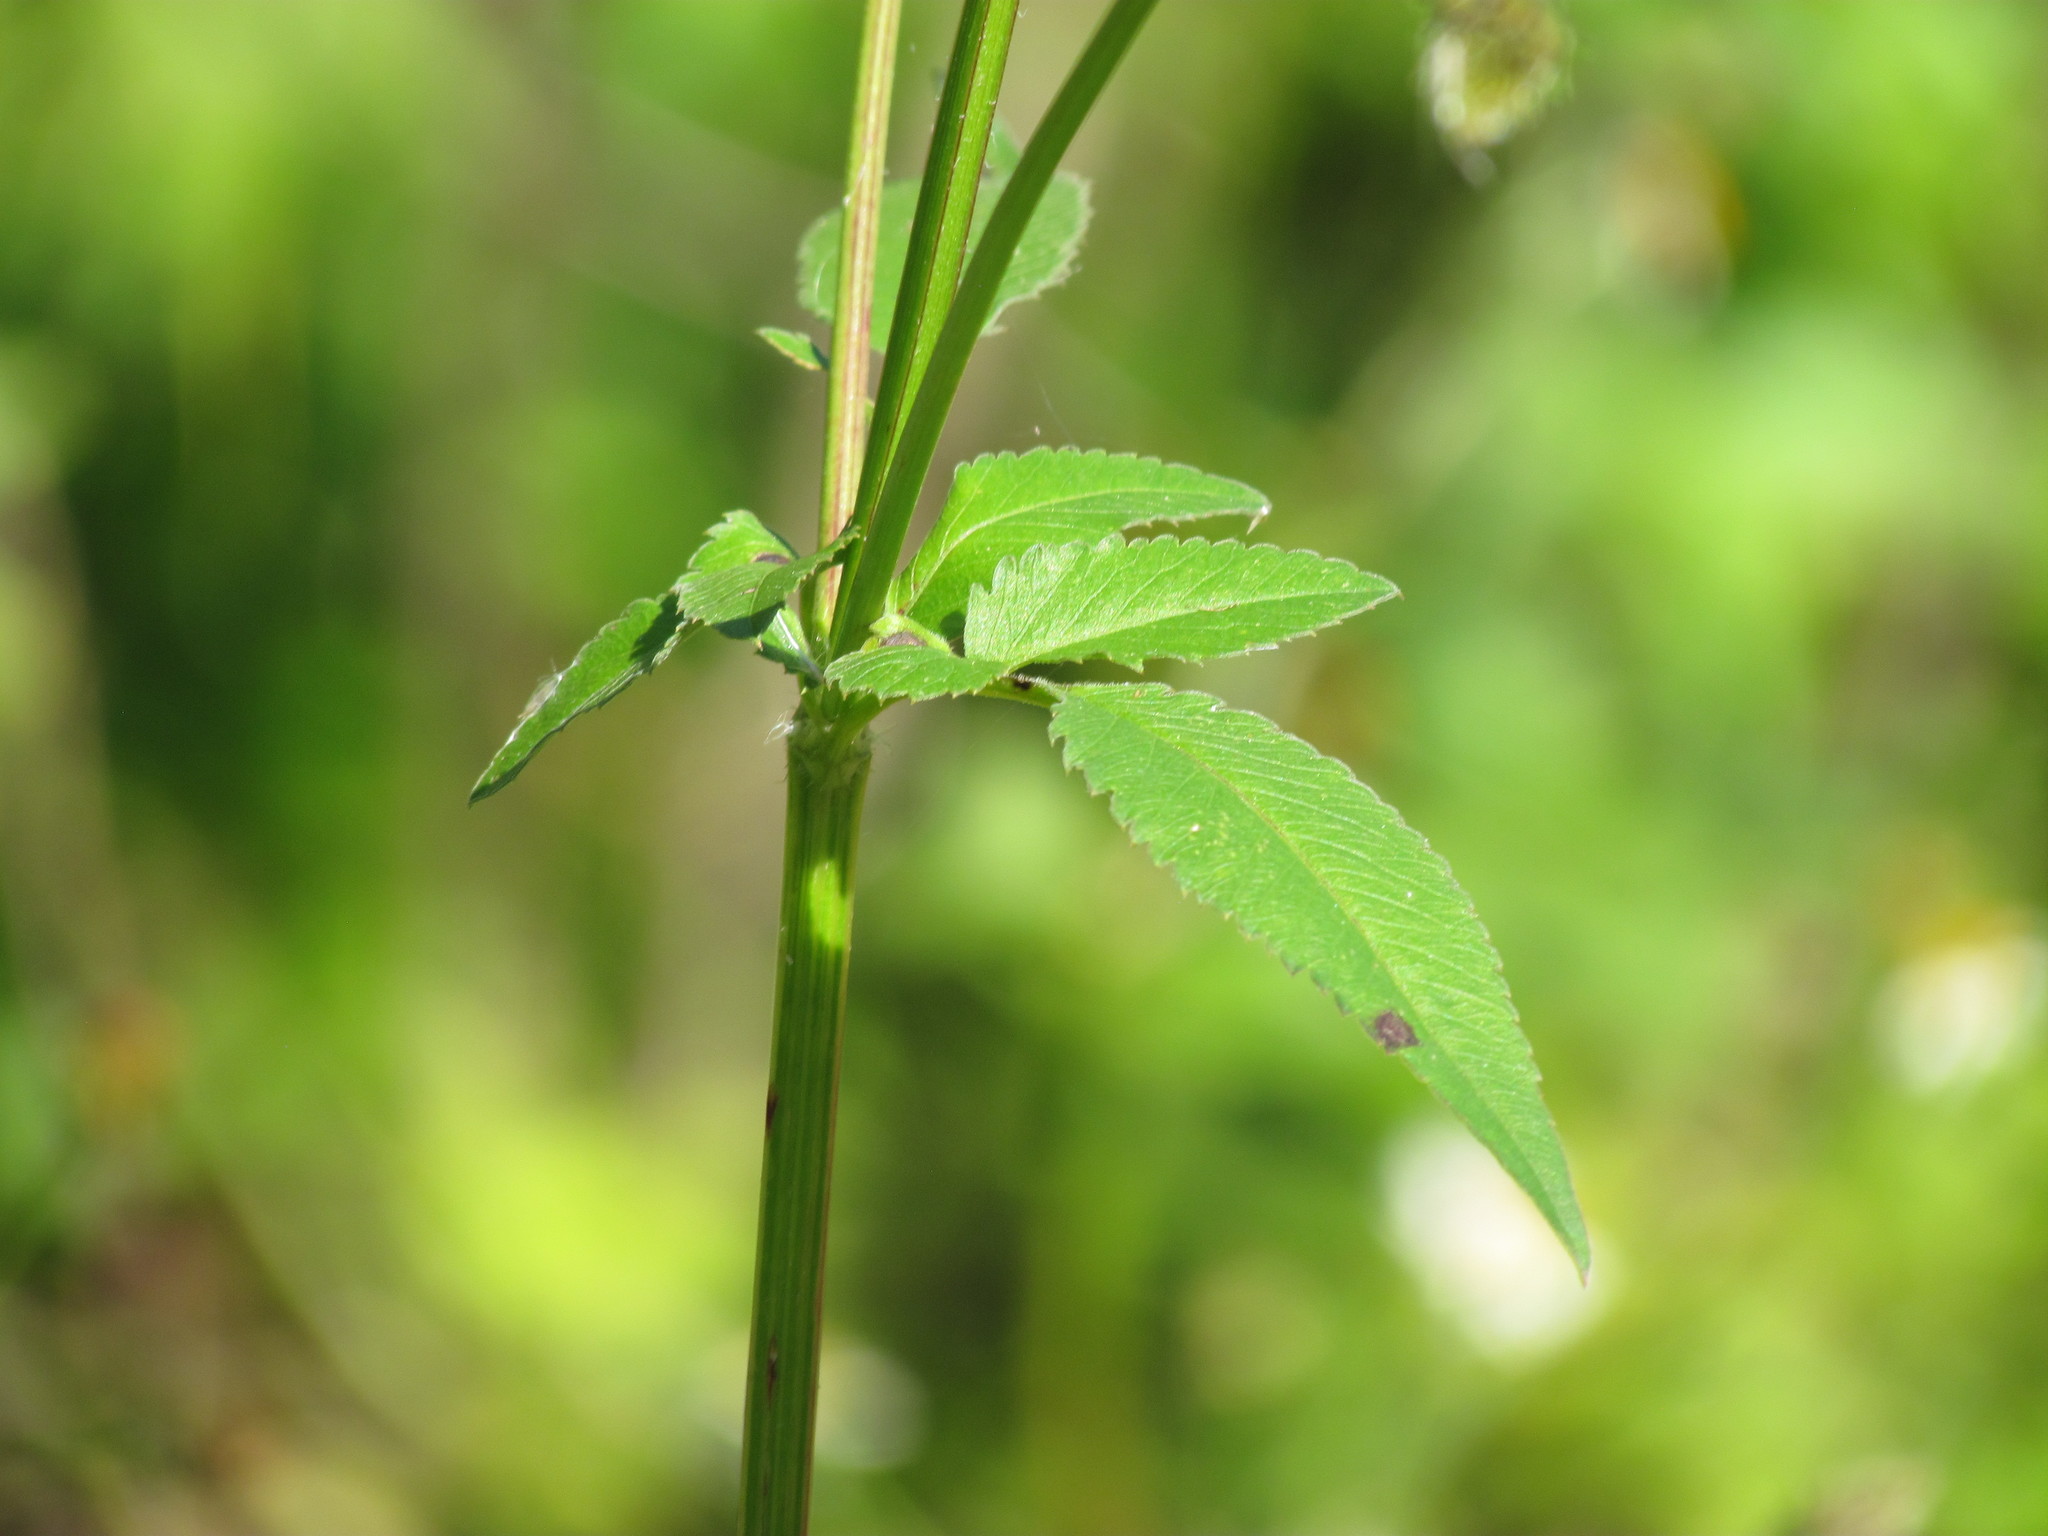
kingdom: Plantae
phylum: Tracheophyta
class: Magnoliopsida
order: Asterales
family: Asteraceae
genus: Bidens
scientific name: Bidens pilosa
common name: Black-jack
